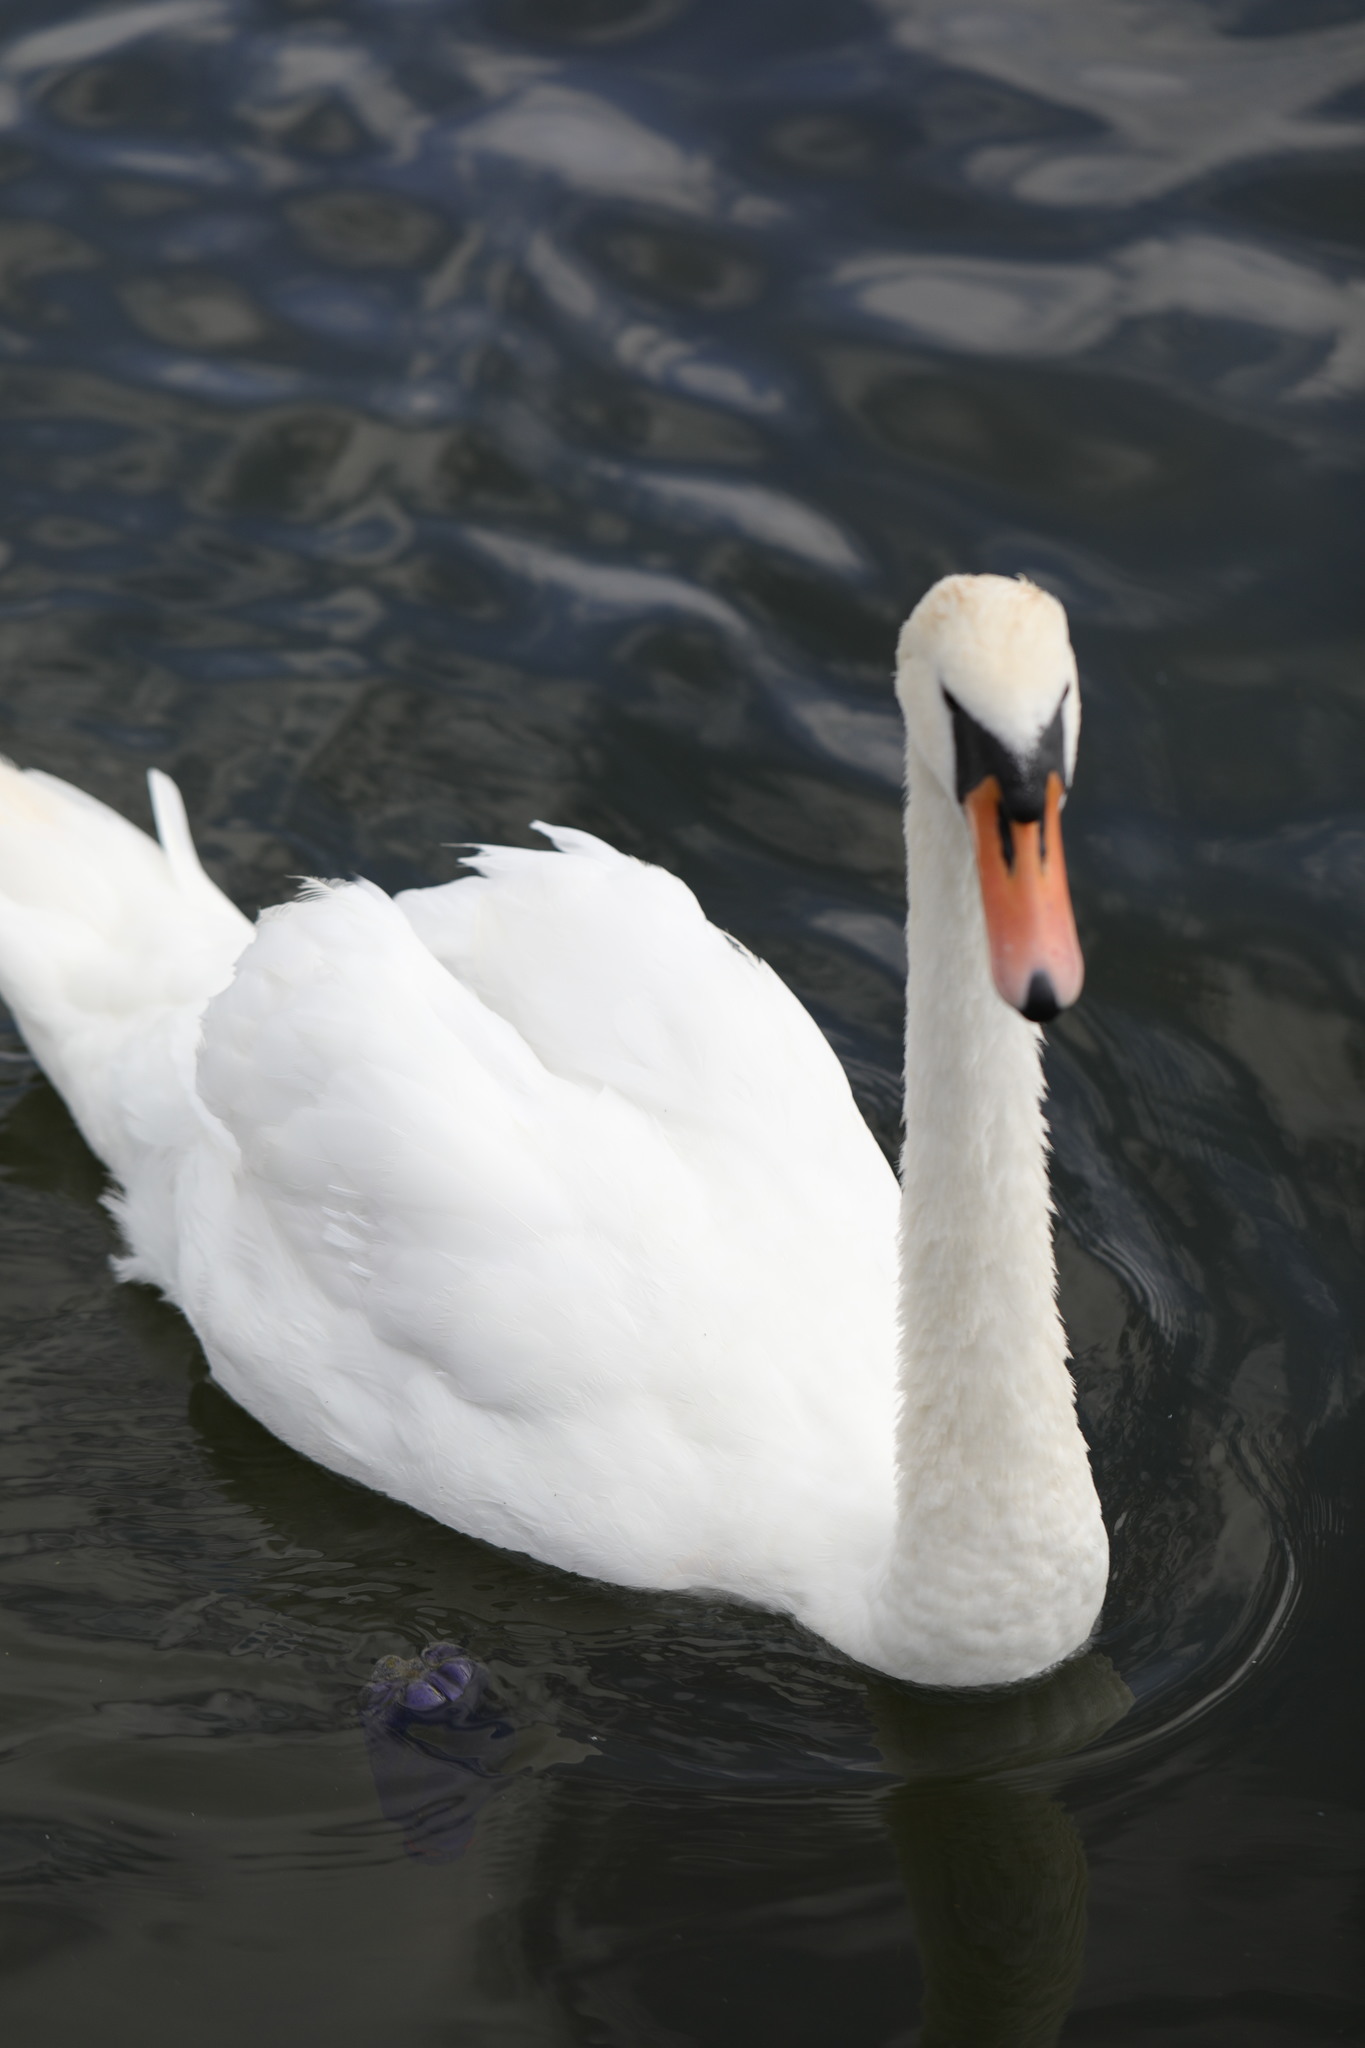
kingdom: Animalia
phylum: Chordata
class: Aves
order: Anseriformes
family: Anatidae
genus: Cygnus
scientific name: Cygnus olor
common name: Mute swan
